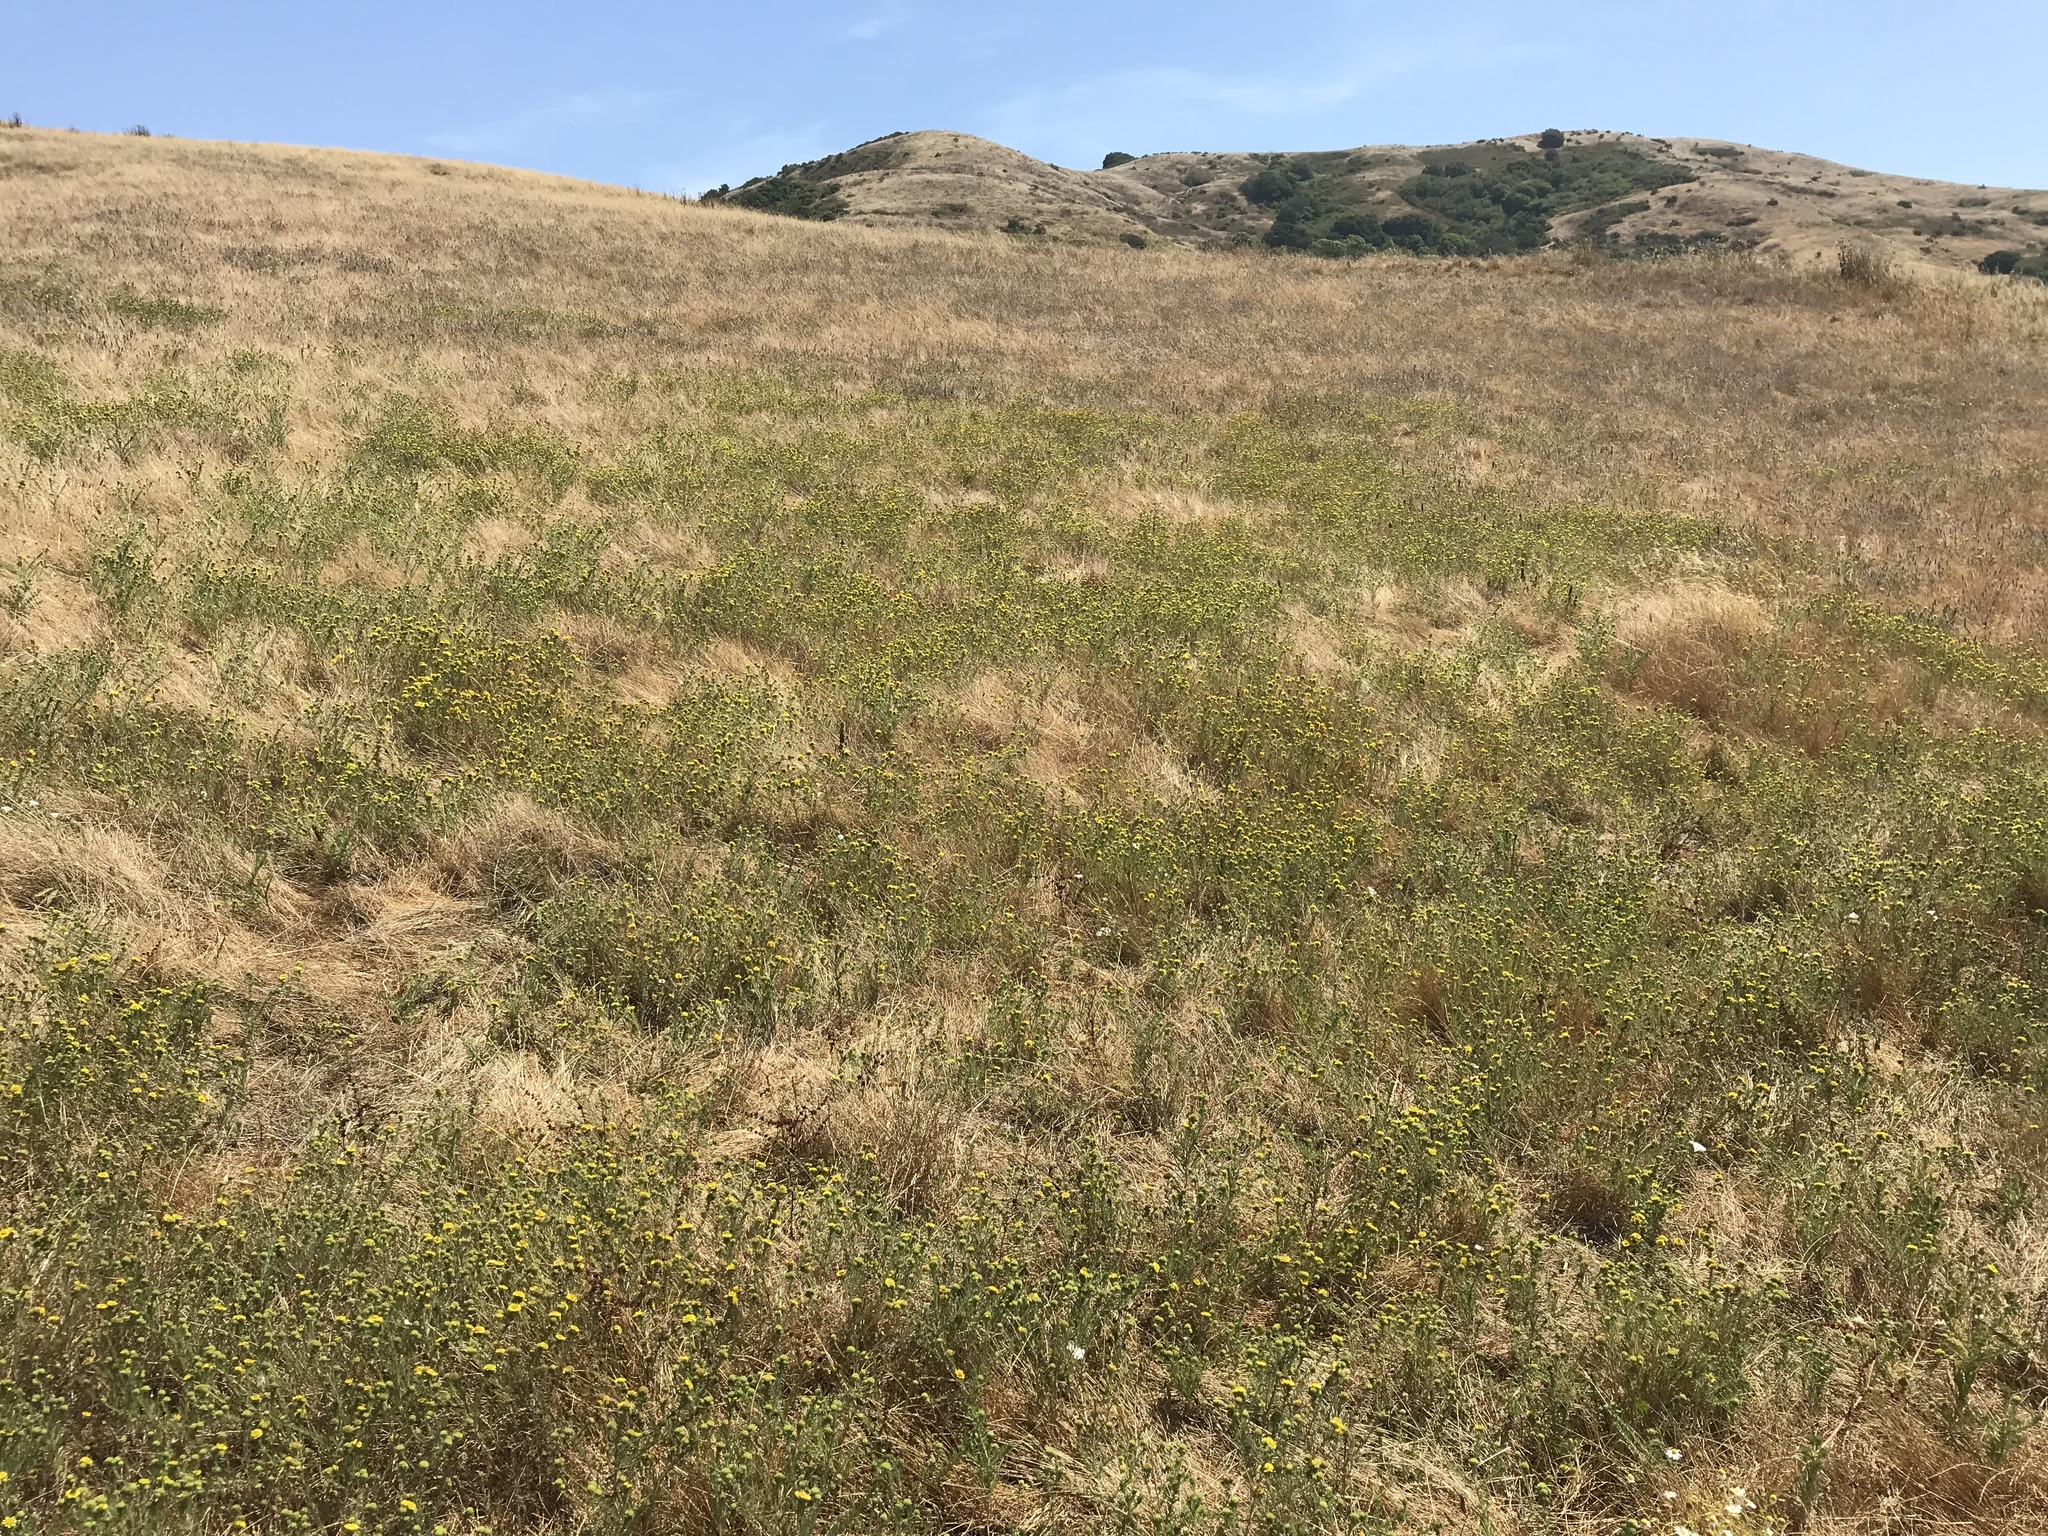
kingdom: Plantae
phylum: Tracheophyta
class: Magnoliopsida
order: Asterales
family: Asteraceae
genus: Holocarpha
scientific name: Holocarpha macradenia
